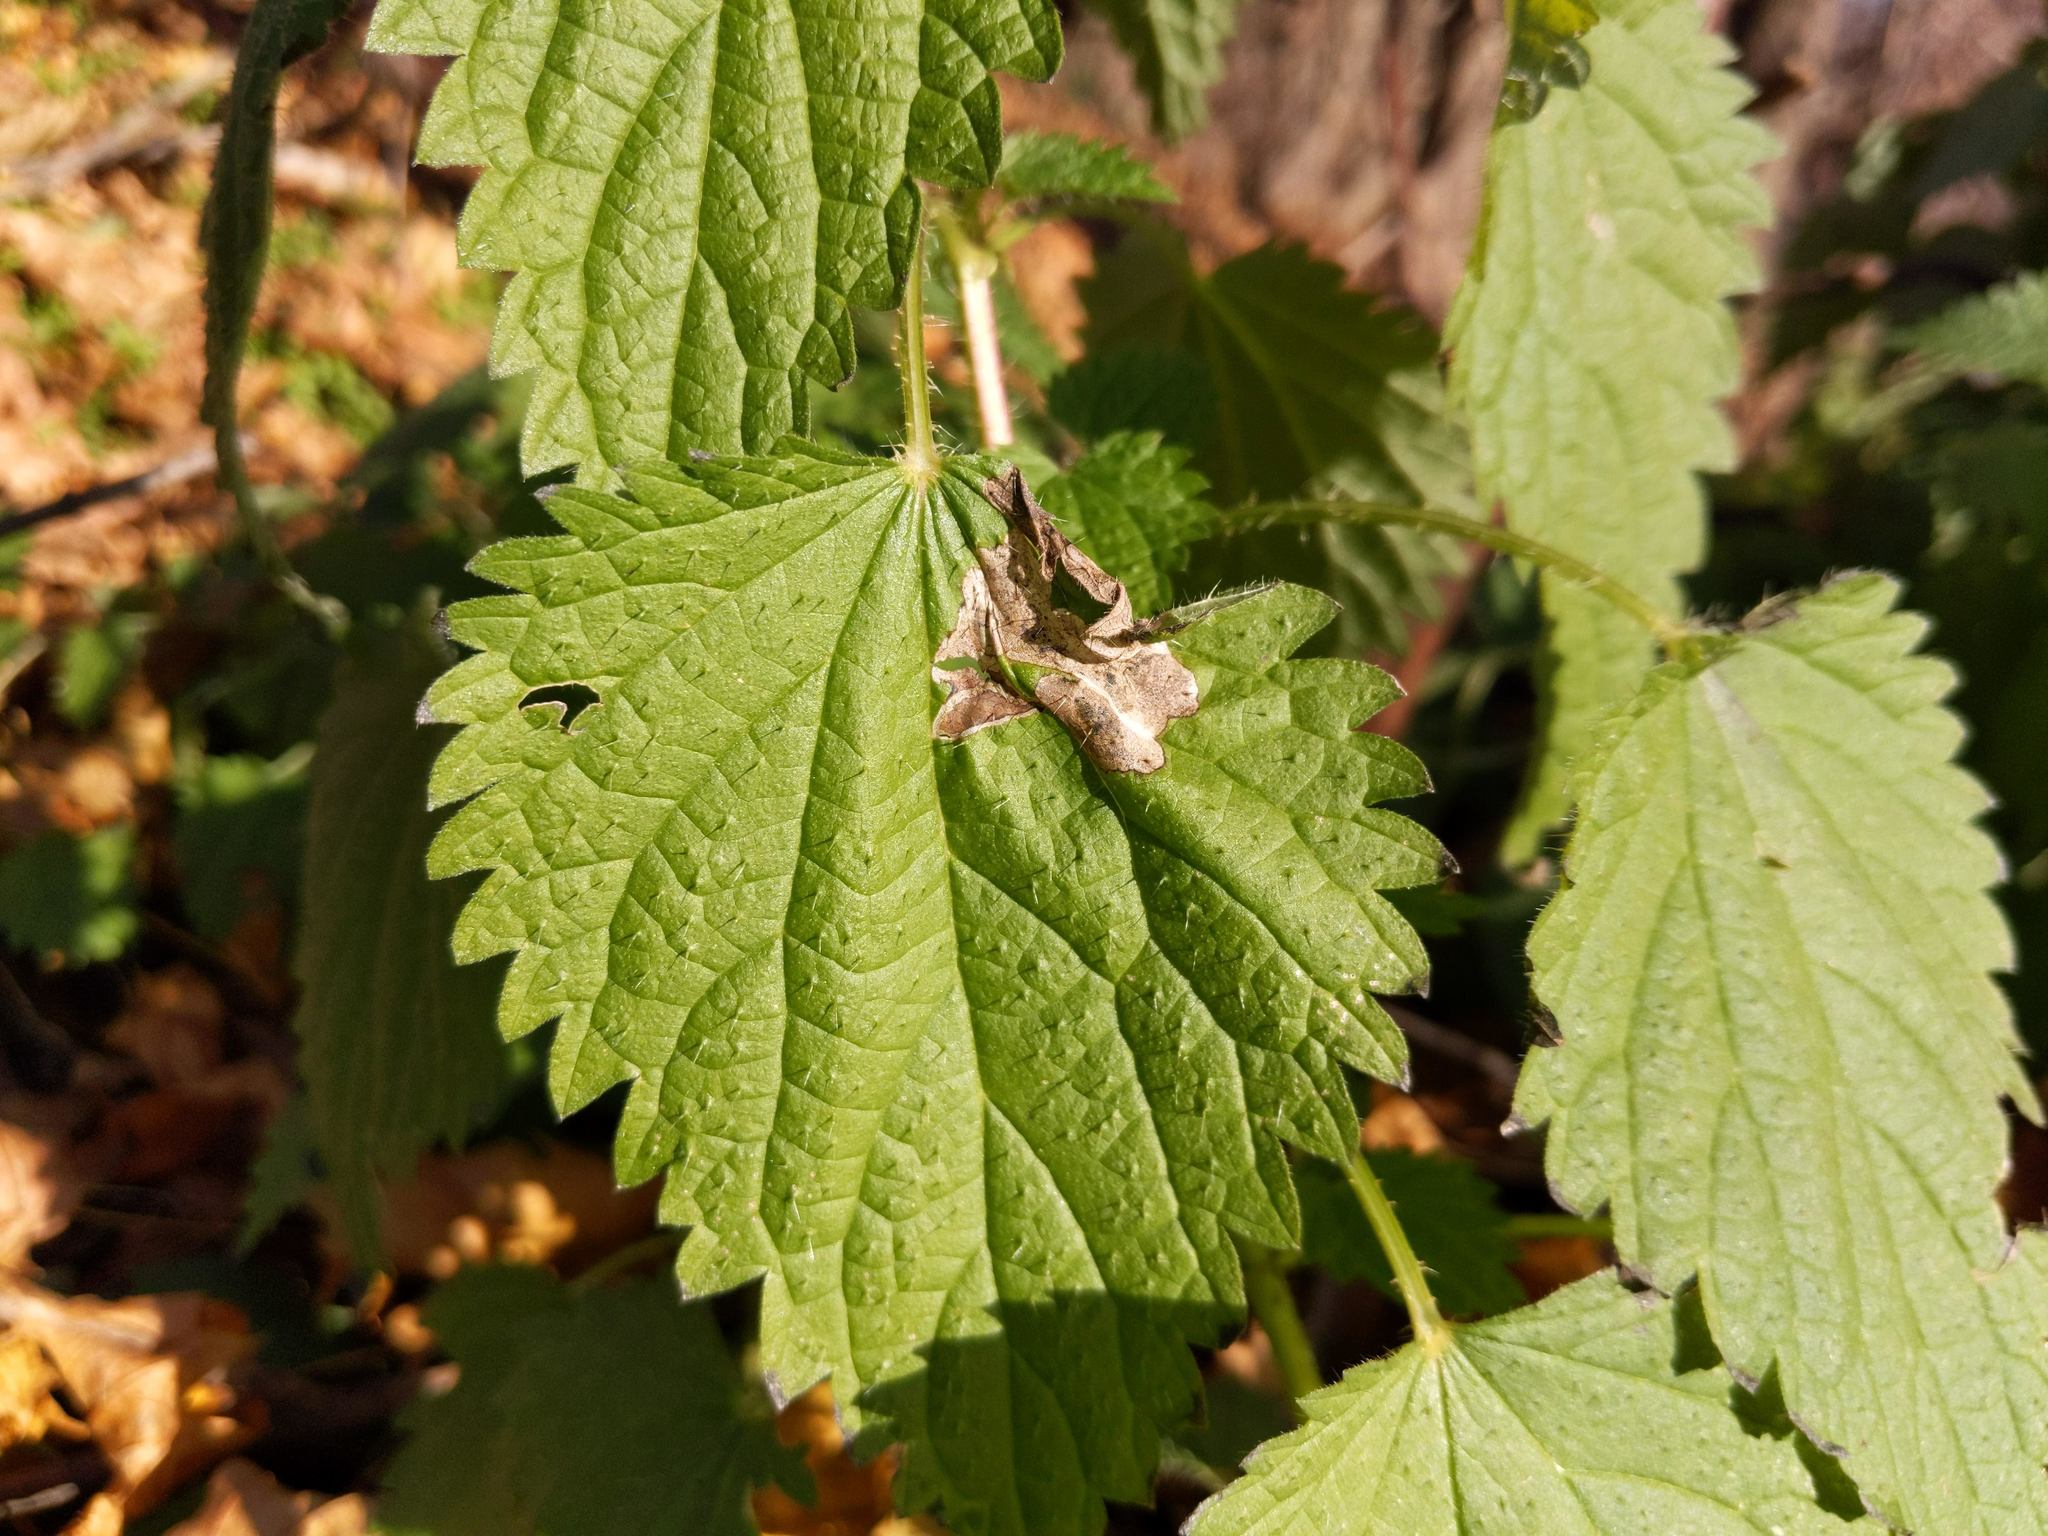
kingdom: Plantae
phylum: Tracheophyta
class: Magnoliopsida
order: Rosales
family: Urticaceae
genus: Urtica
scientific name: Urtica dioica
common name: Common nettle
